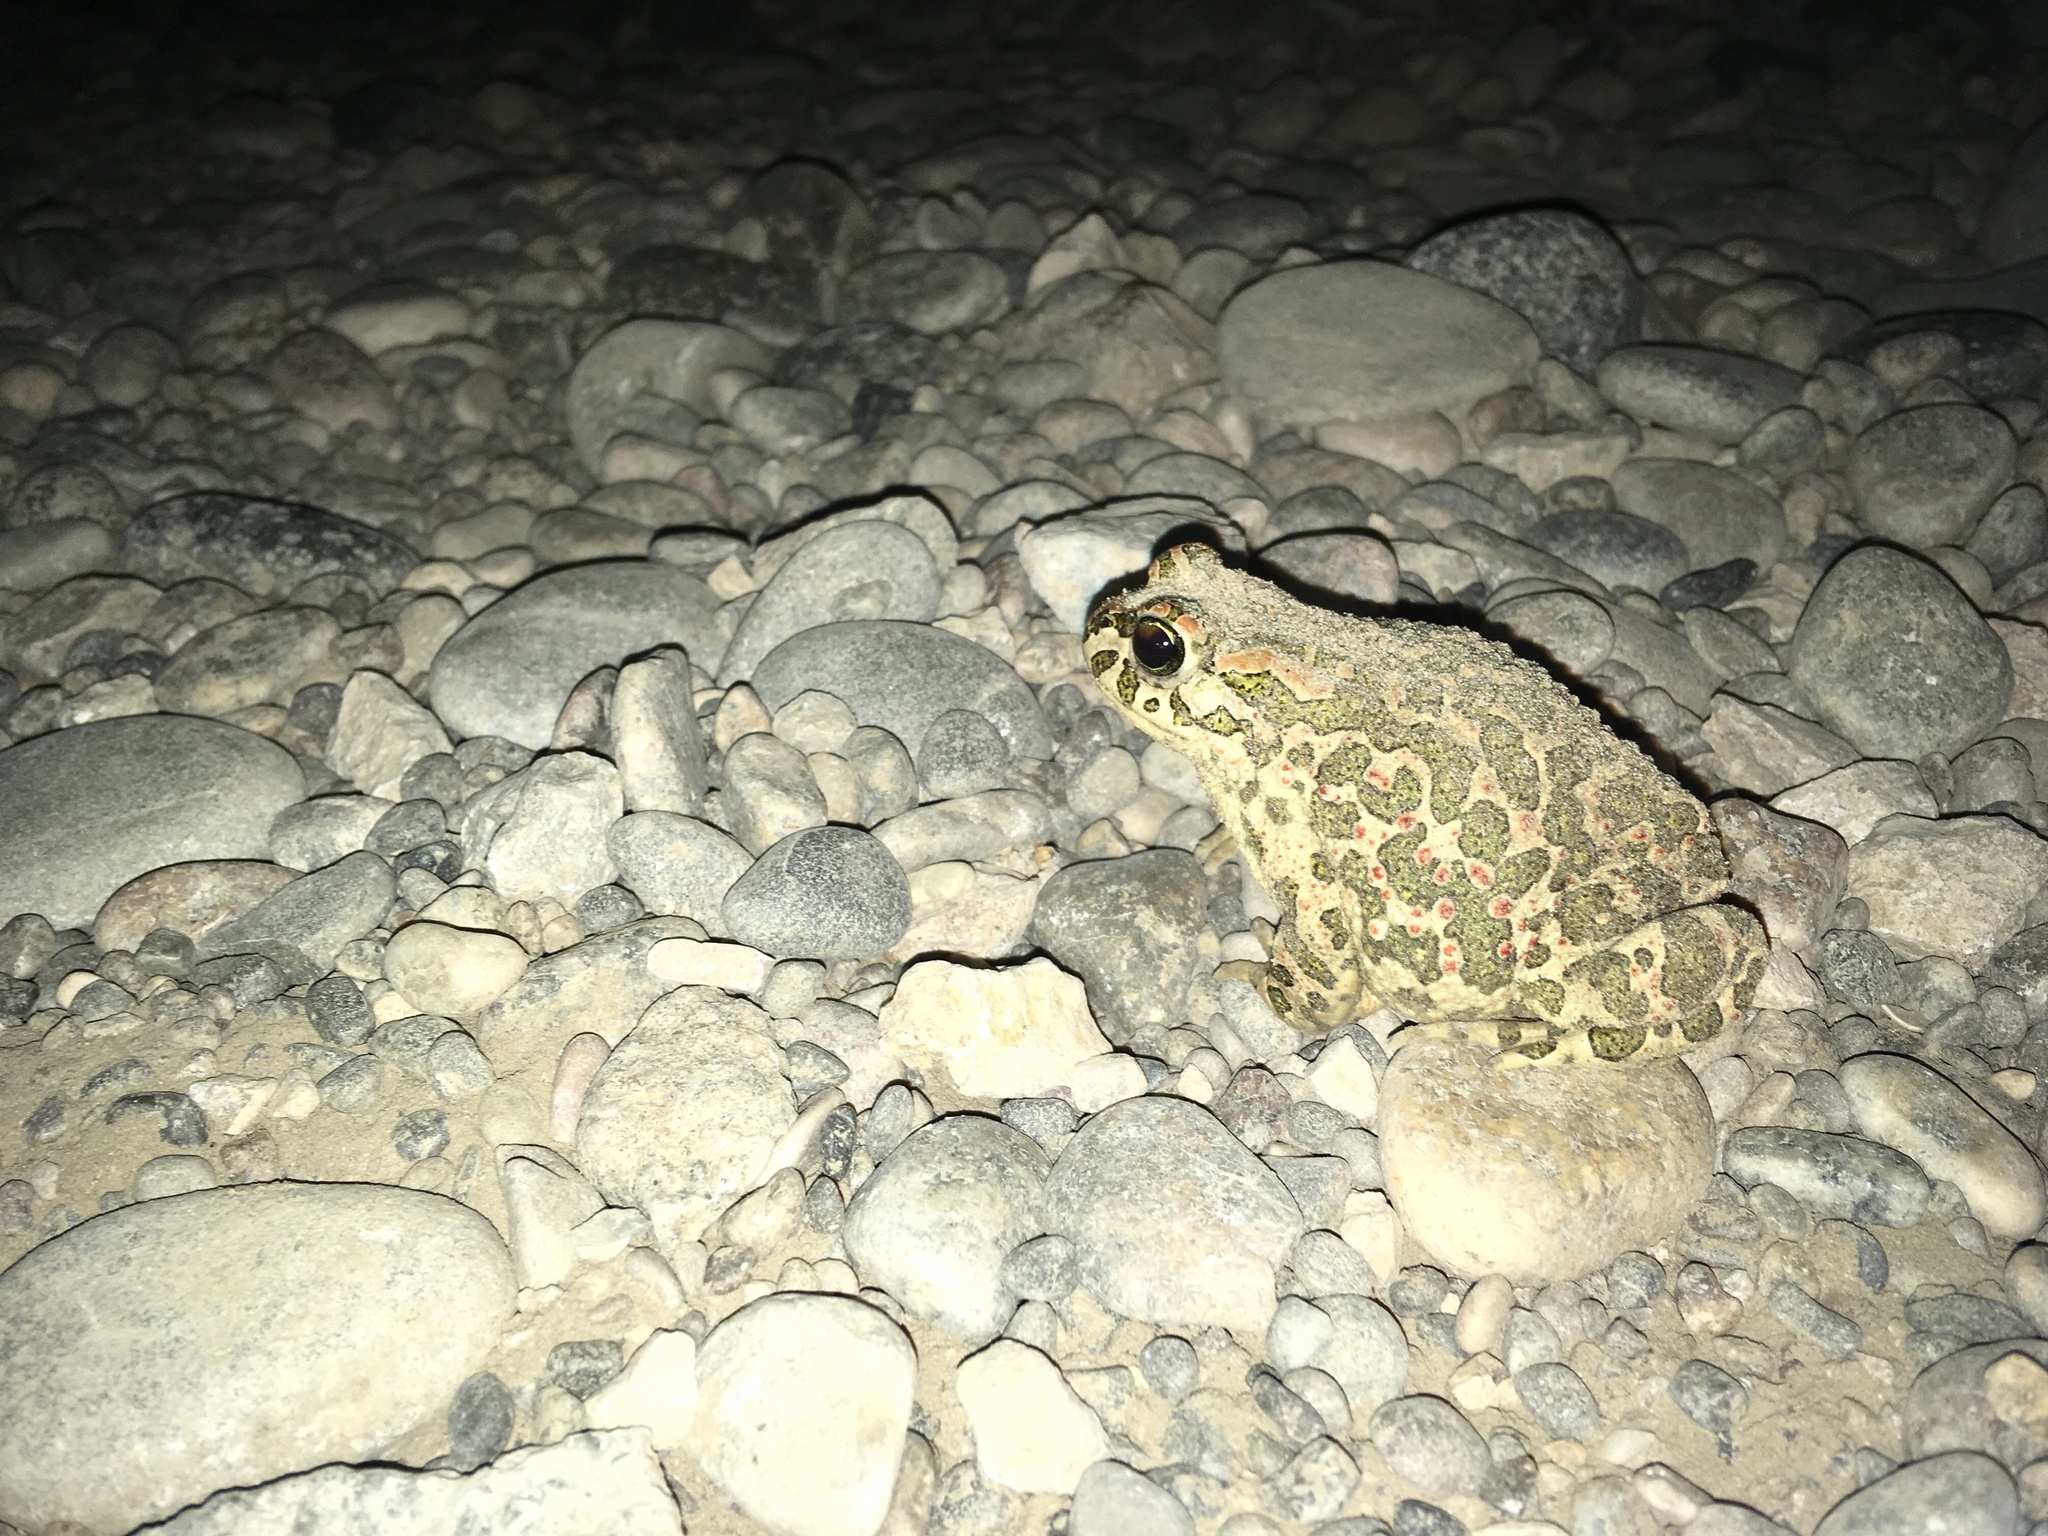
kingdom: Animalia
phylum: Chordata
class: Amphibia
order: Anura
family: Bufonidae
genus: Bufotes
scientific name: Bufotes viridis
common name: European green toad
